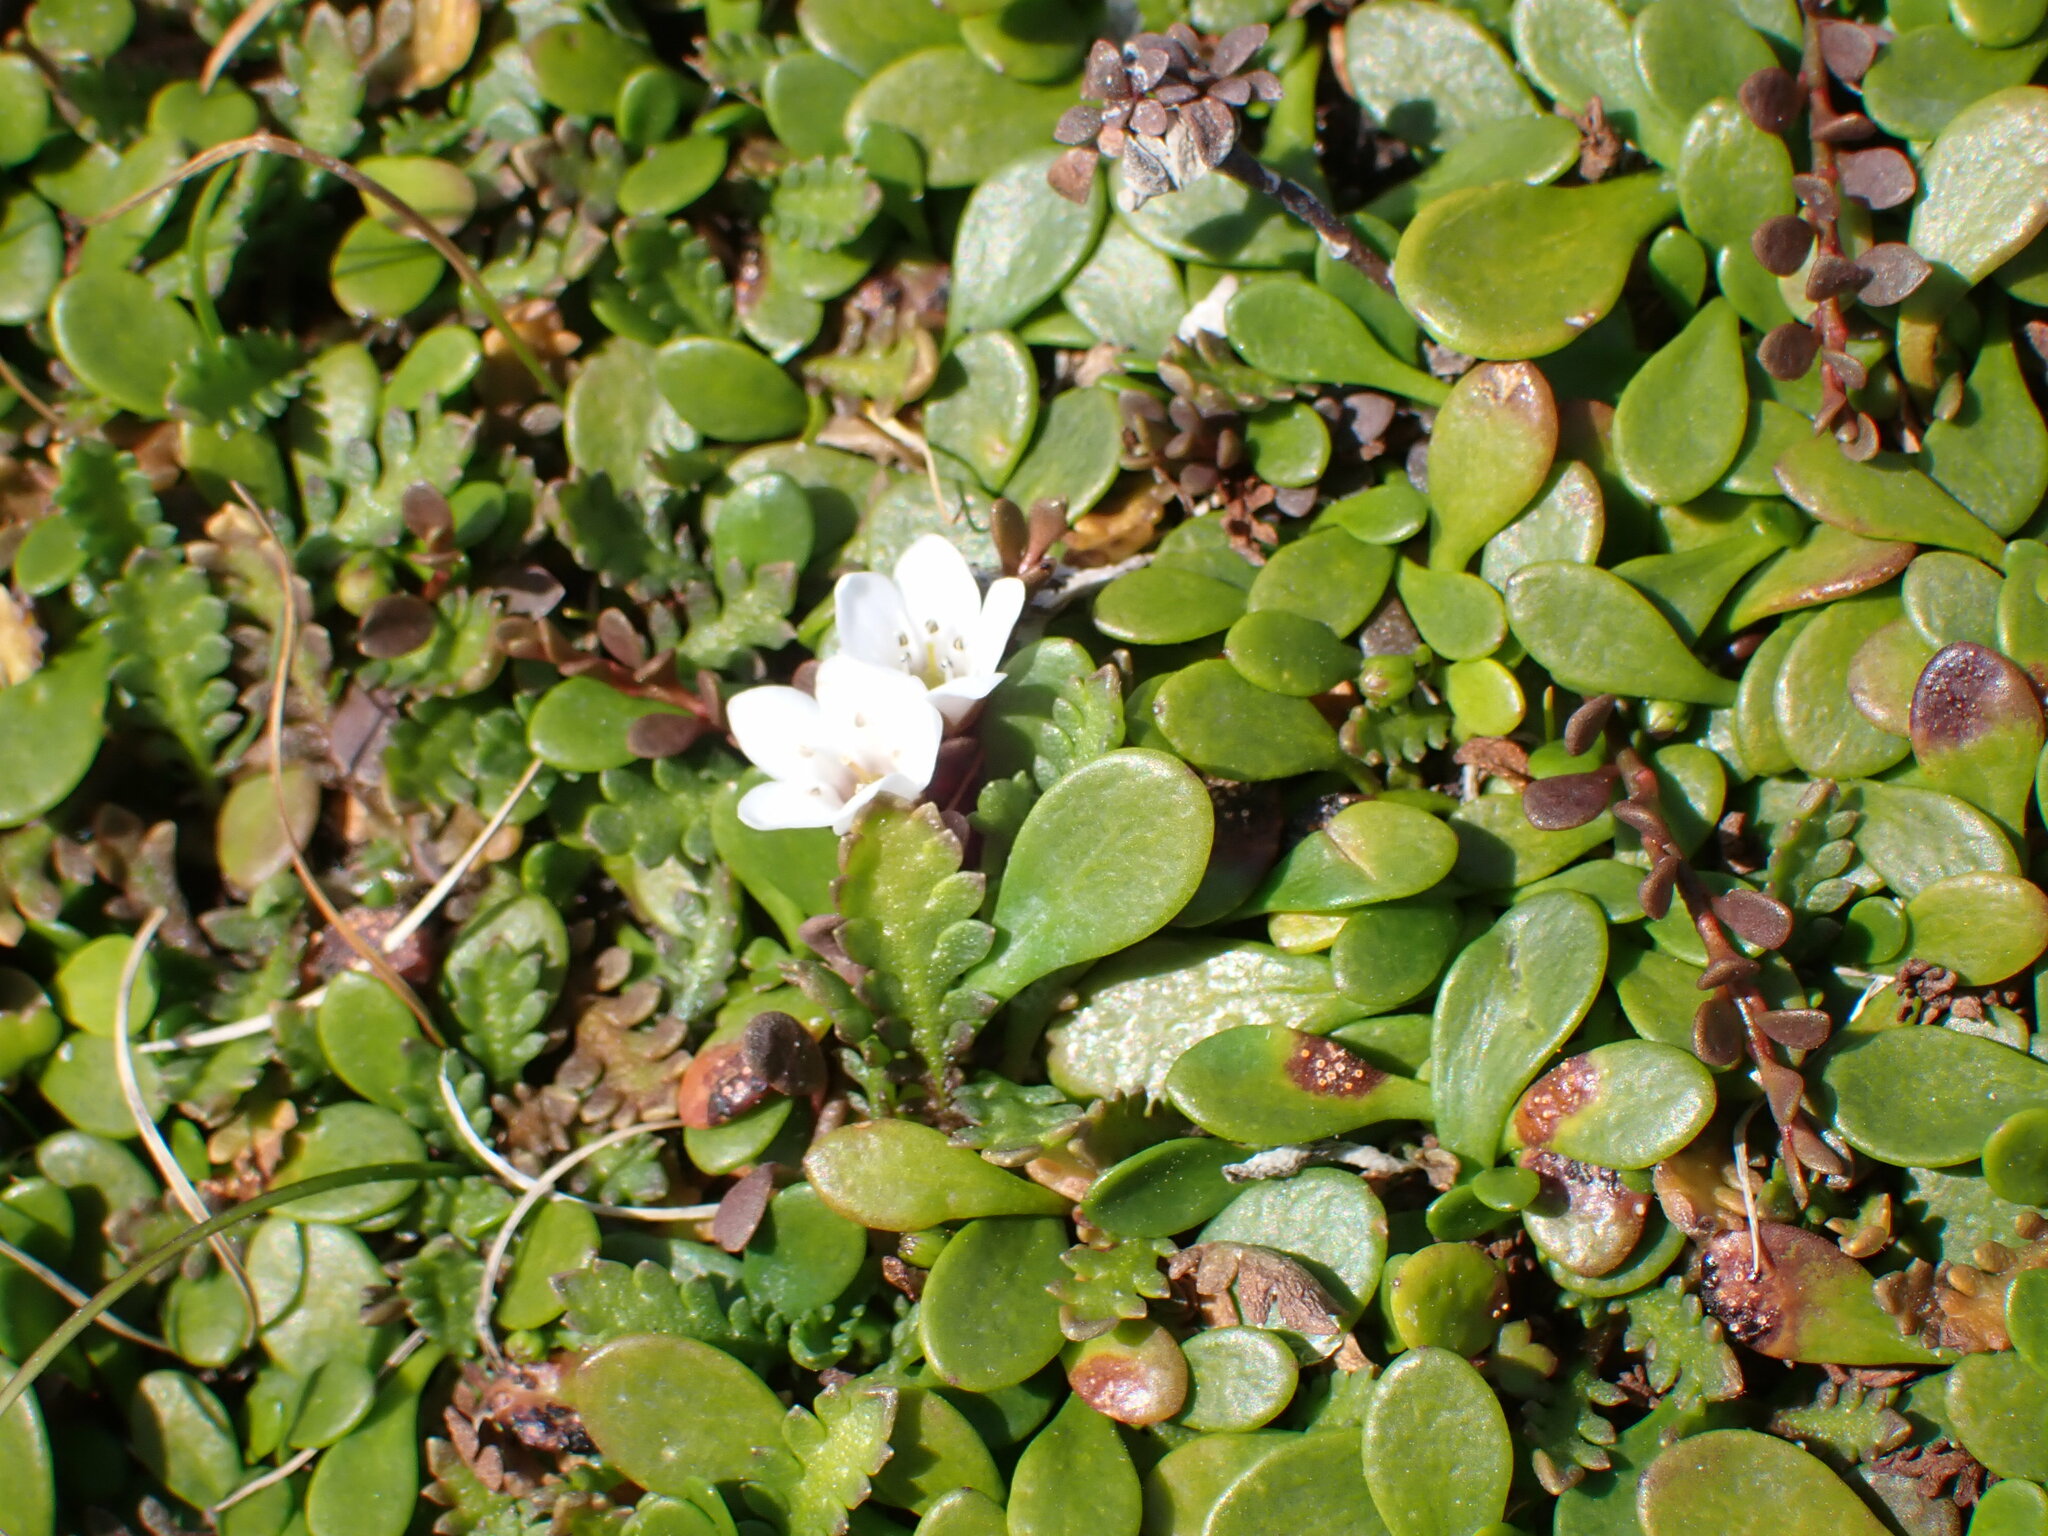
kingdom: Plantae
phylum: Tracheophyta
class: Magnoliopsida
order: Ericales
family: Primulaceae
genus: Samolus
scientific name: Samolus repens
